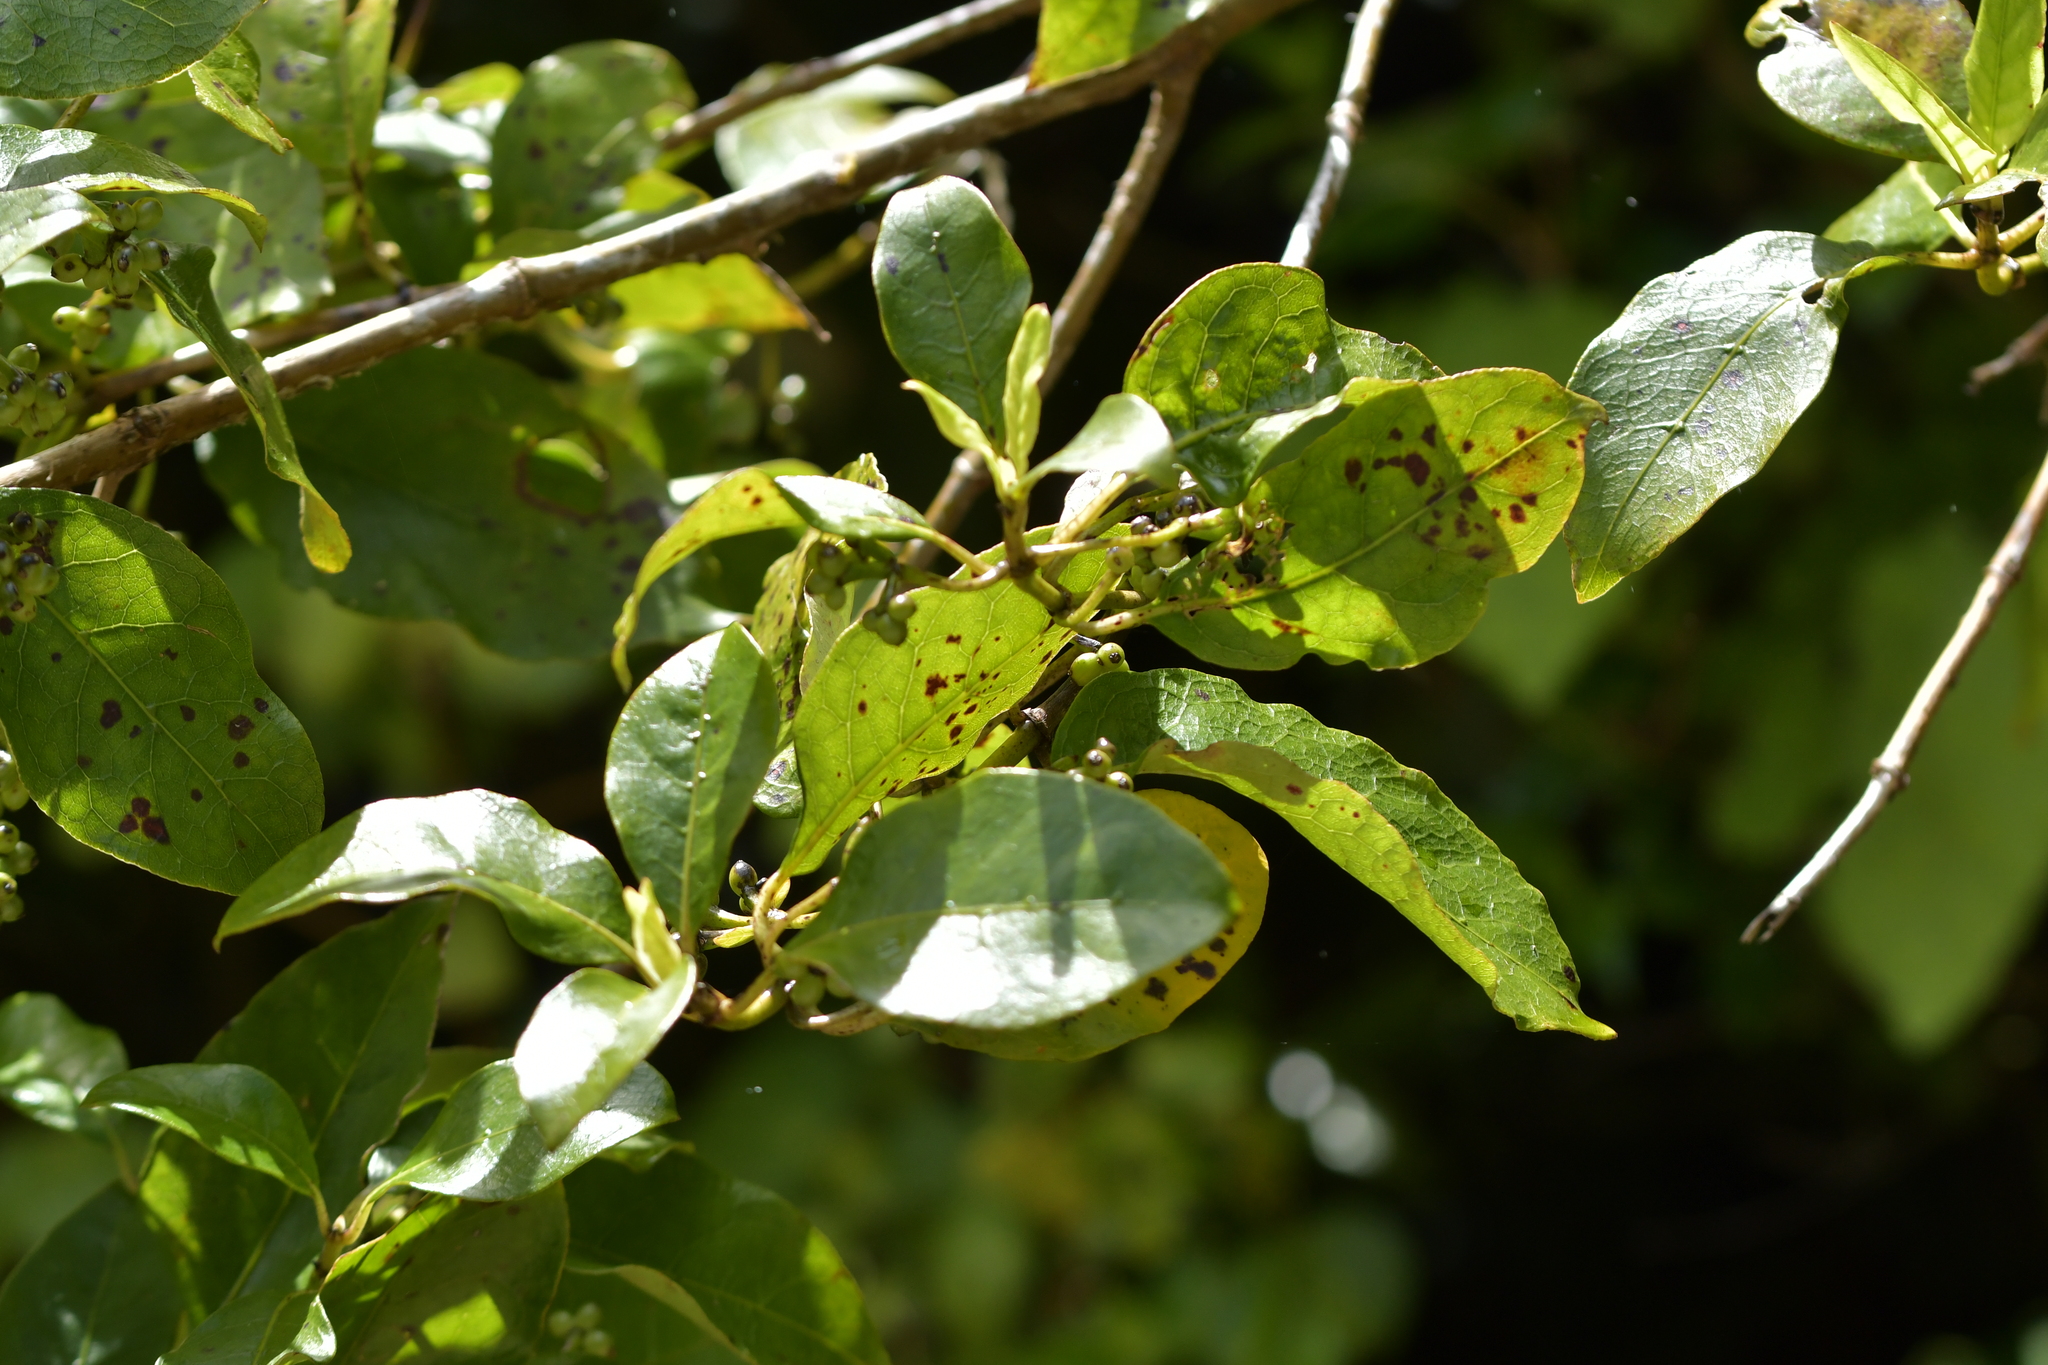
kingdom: Plantae
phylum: Tracheophyta
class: Magnoliopsida
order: Gentianales
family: Rubiaceae
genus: Coprosma
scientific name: Coprosma autumnalis
